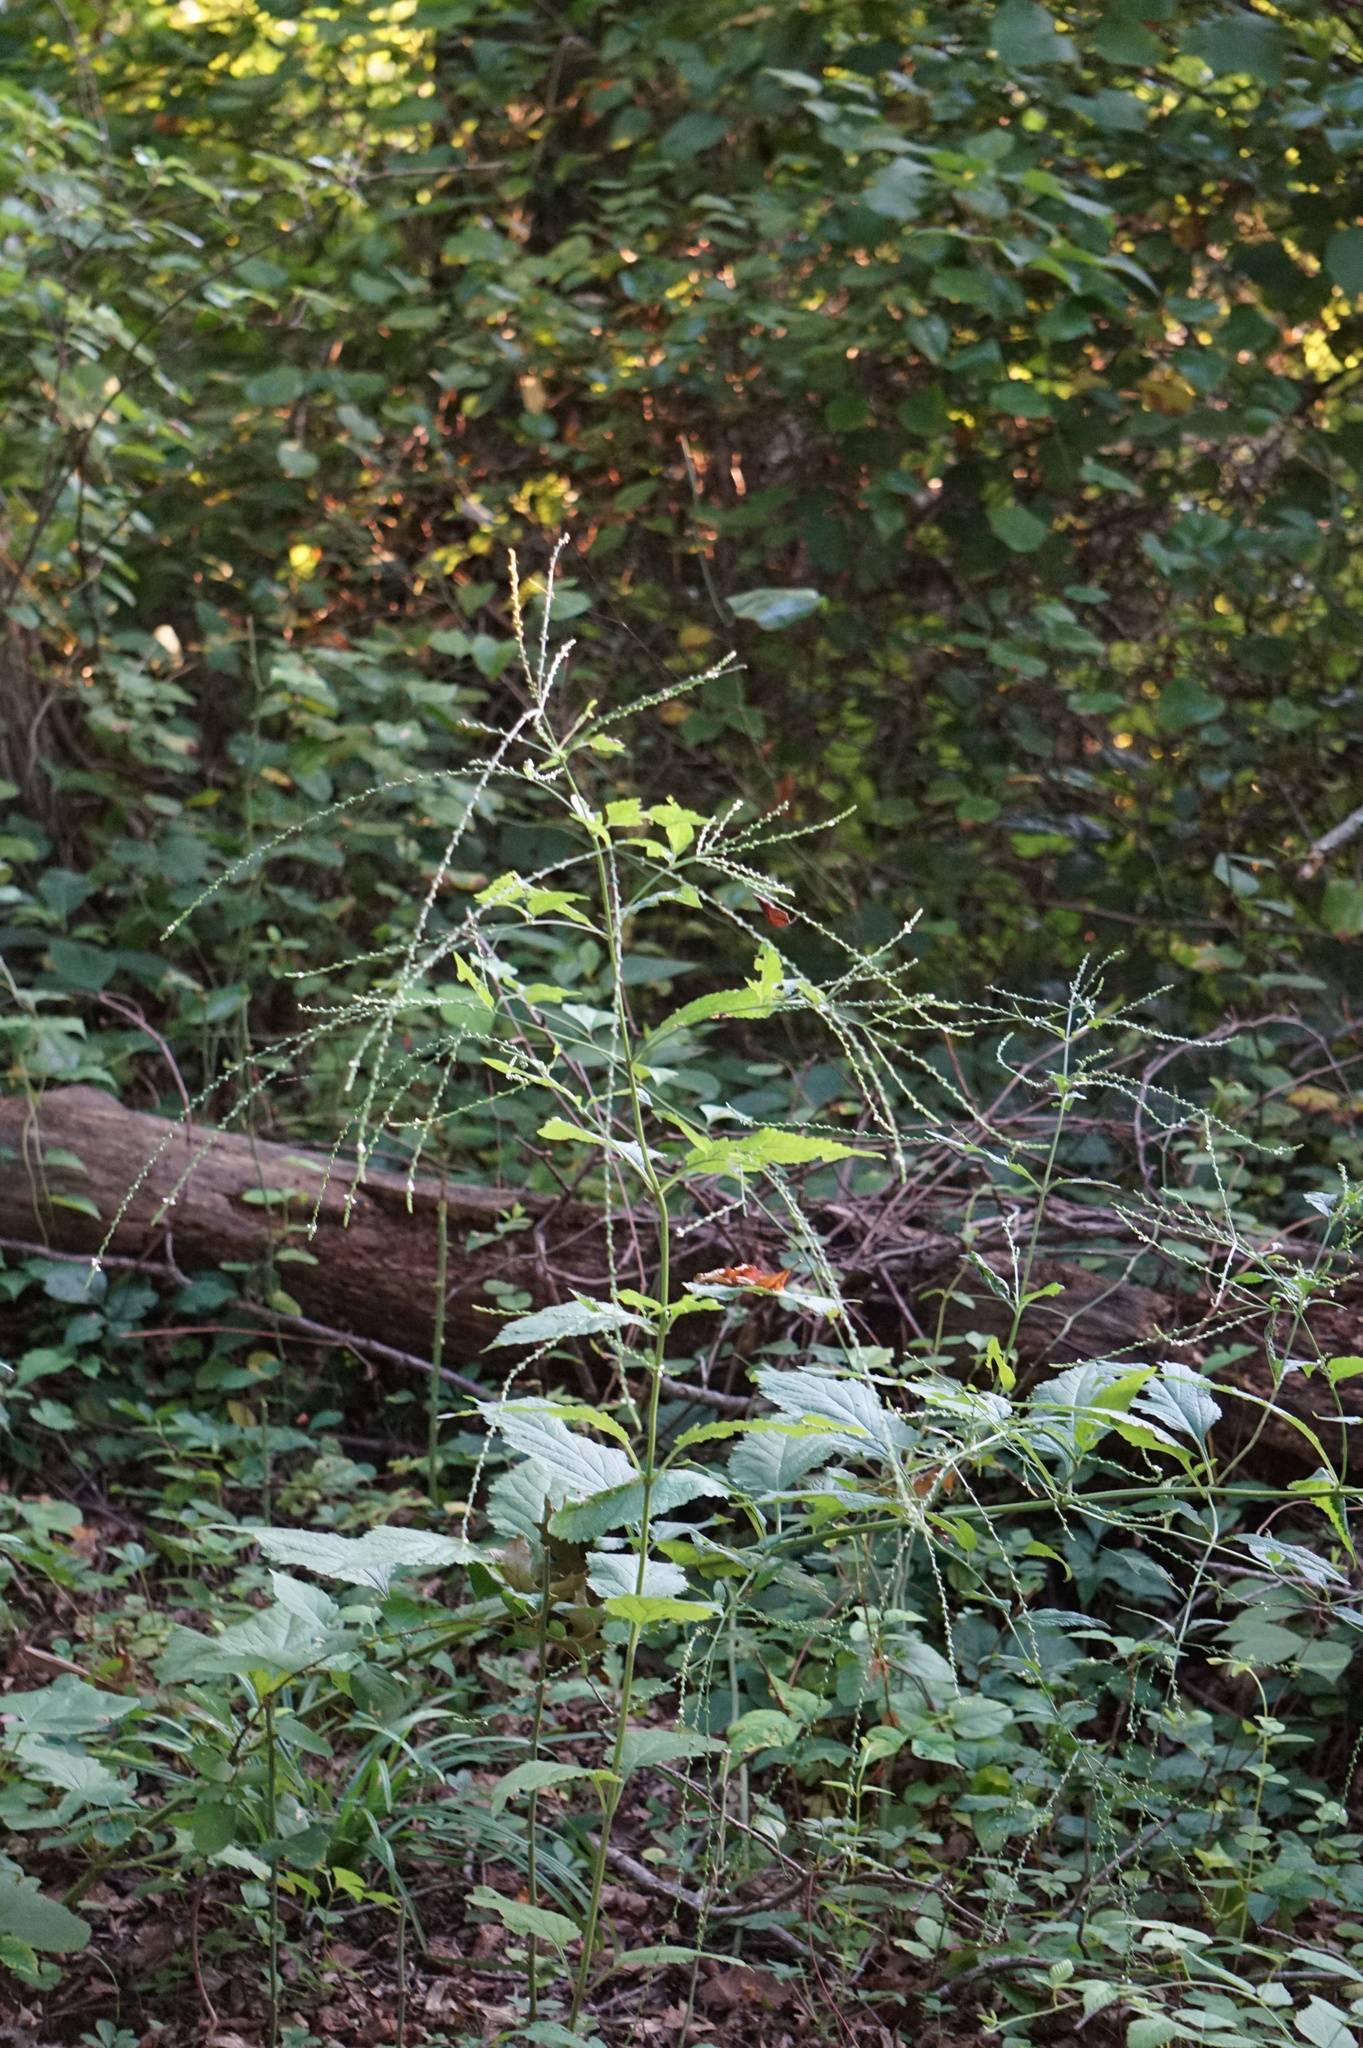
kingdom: Plantae
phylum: Tracheophyta
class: Magnoliopsida
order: Lamiales
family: Verbenaceae
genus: Verbena
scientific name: Verbena urticifolia
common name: Nettle-leaved vervain
